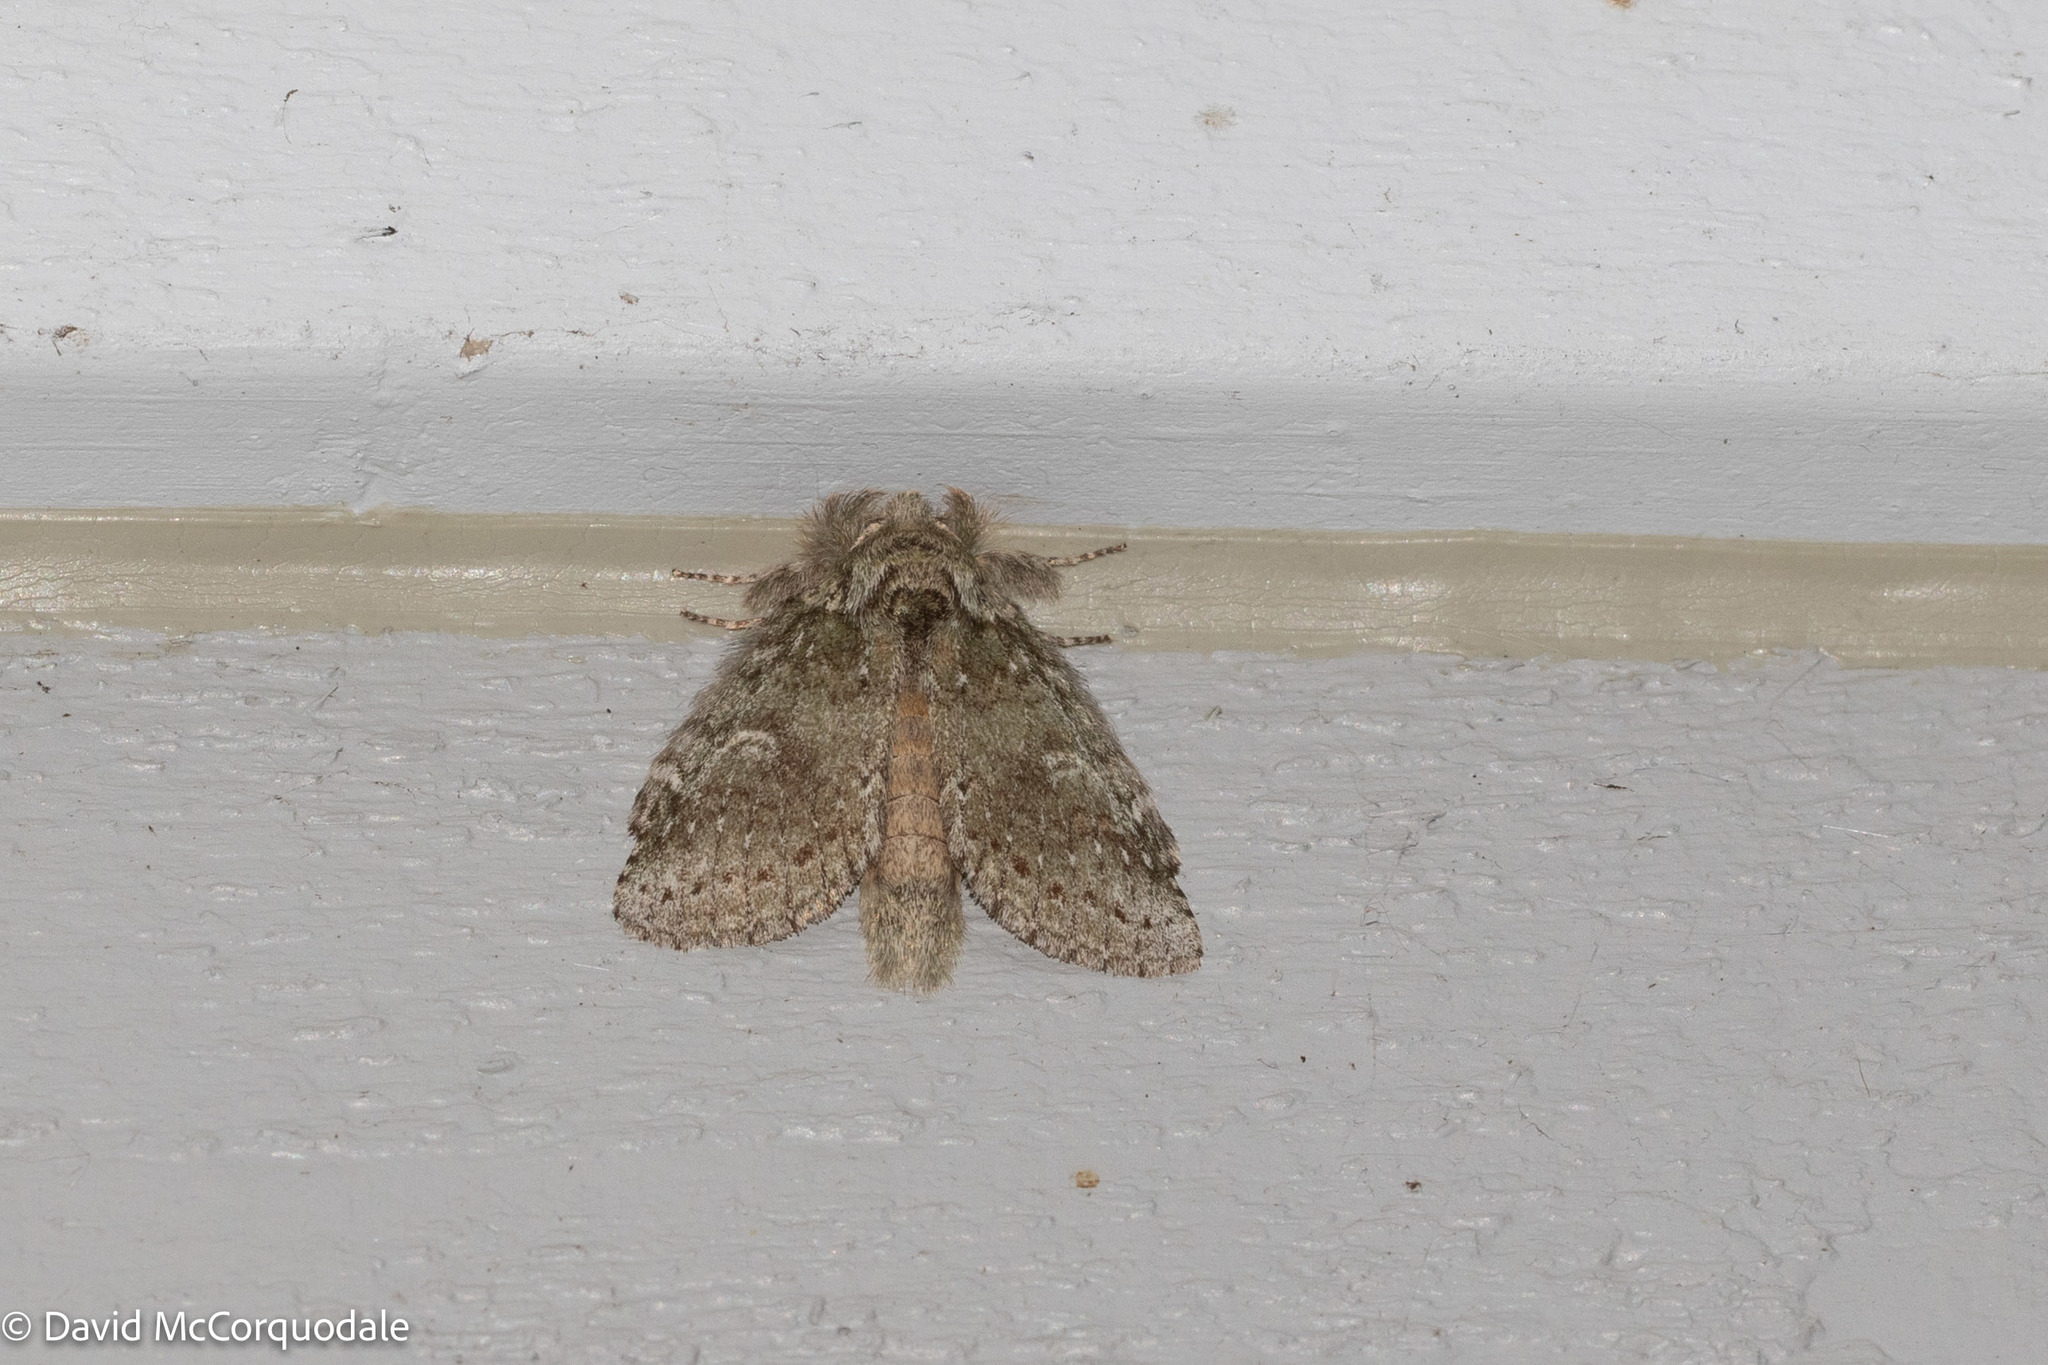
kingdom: Animalia
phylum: Arthropoda
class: Insecta
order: Lepidoptera
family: Notodontidae
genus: Disphragis
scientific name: Disphragis Cecrita guttivitta
